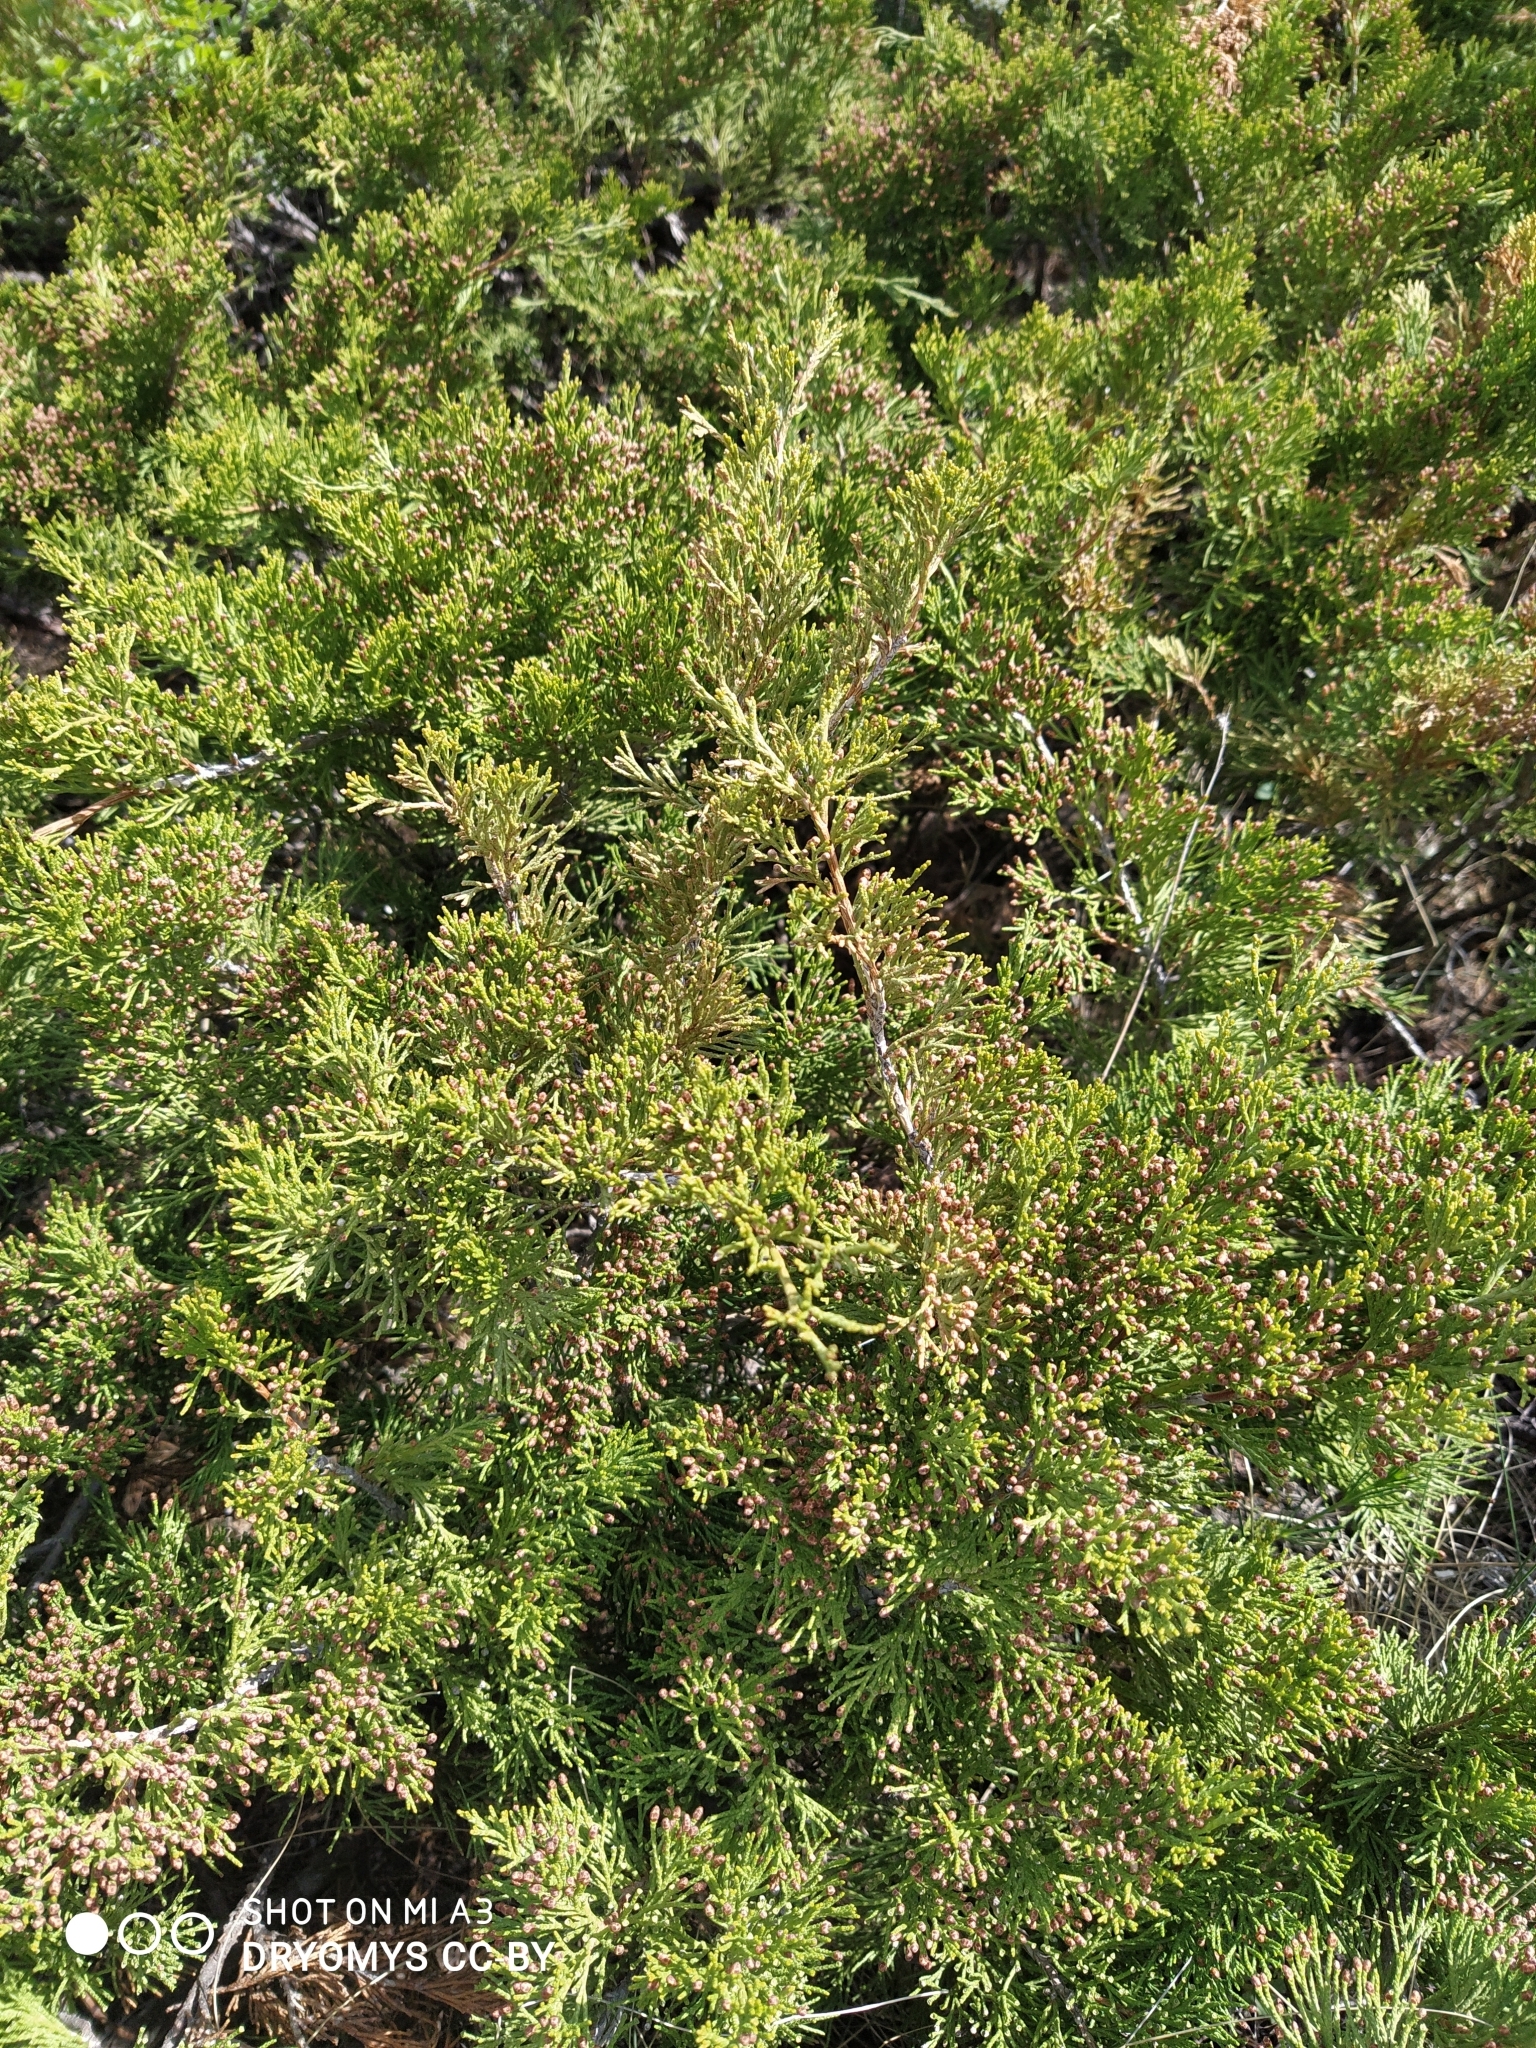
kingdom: Plantae
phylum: Tracheophyta
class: Pinopsida
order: Pinales
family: Cupressaceae
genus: Juniperus
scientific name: Juniperus sabina
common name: Savin
